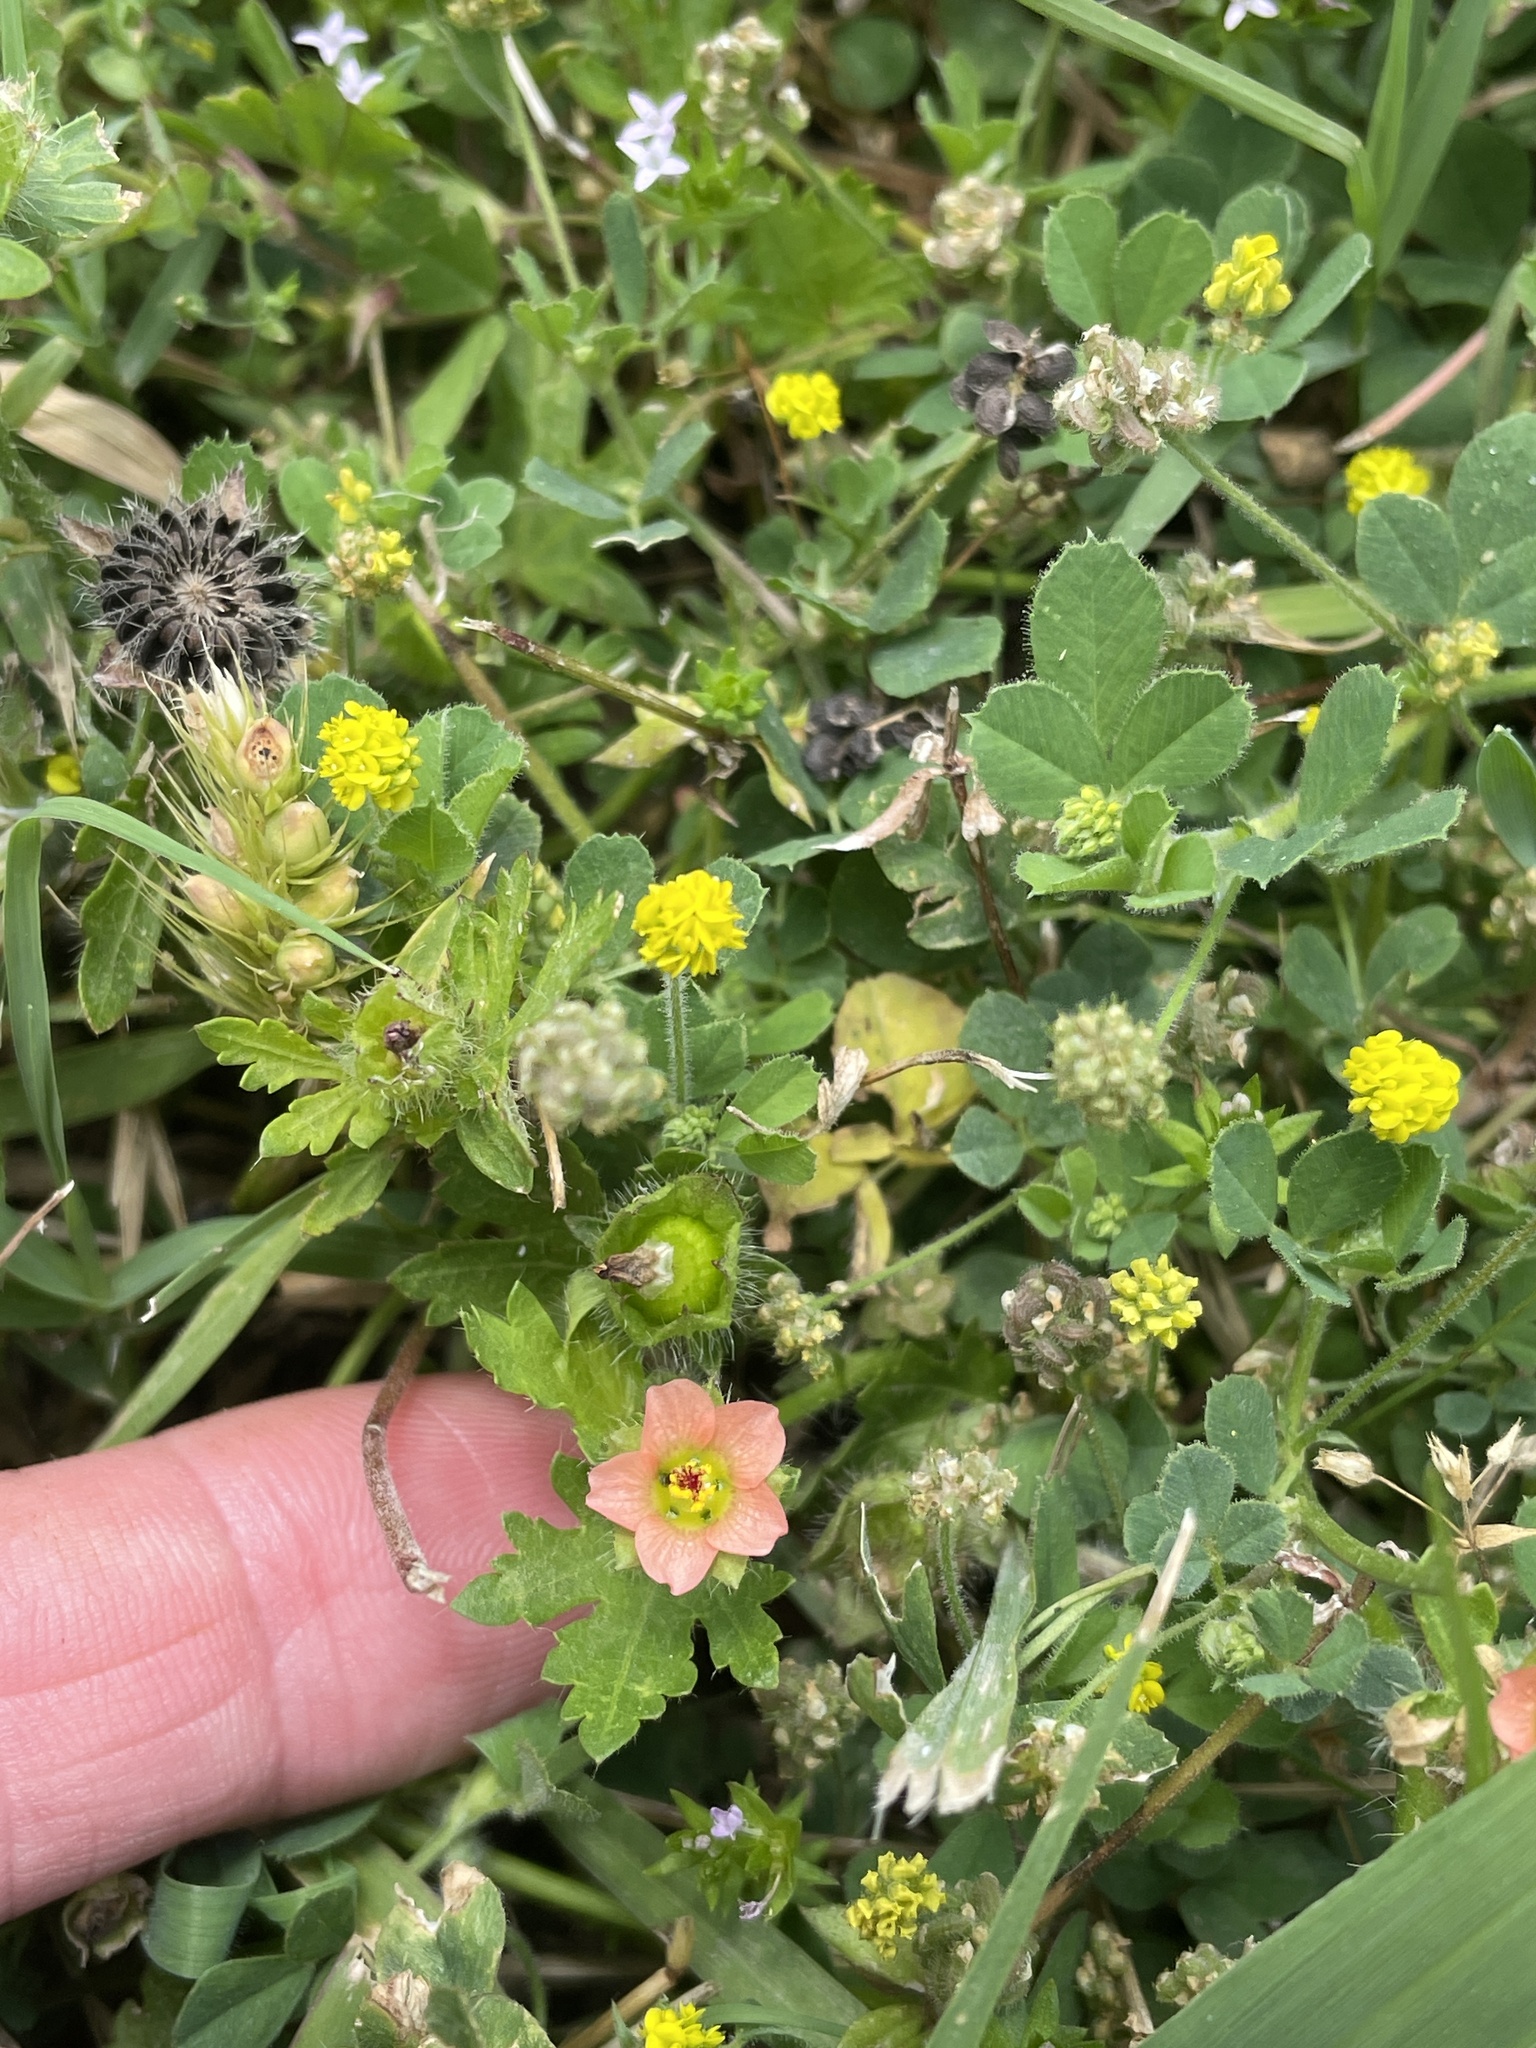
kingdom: Plantae
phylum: Tracheophyta
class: Magnoliopsida
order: Malvales
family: Malvaceae
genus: Modiola
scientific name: Modiola caroliniana
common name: Carolina bristlemallow
